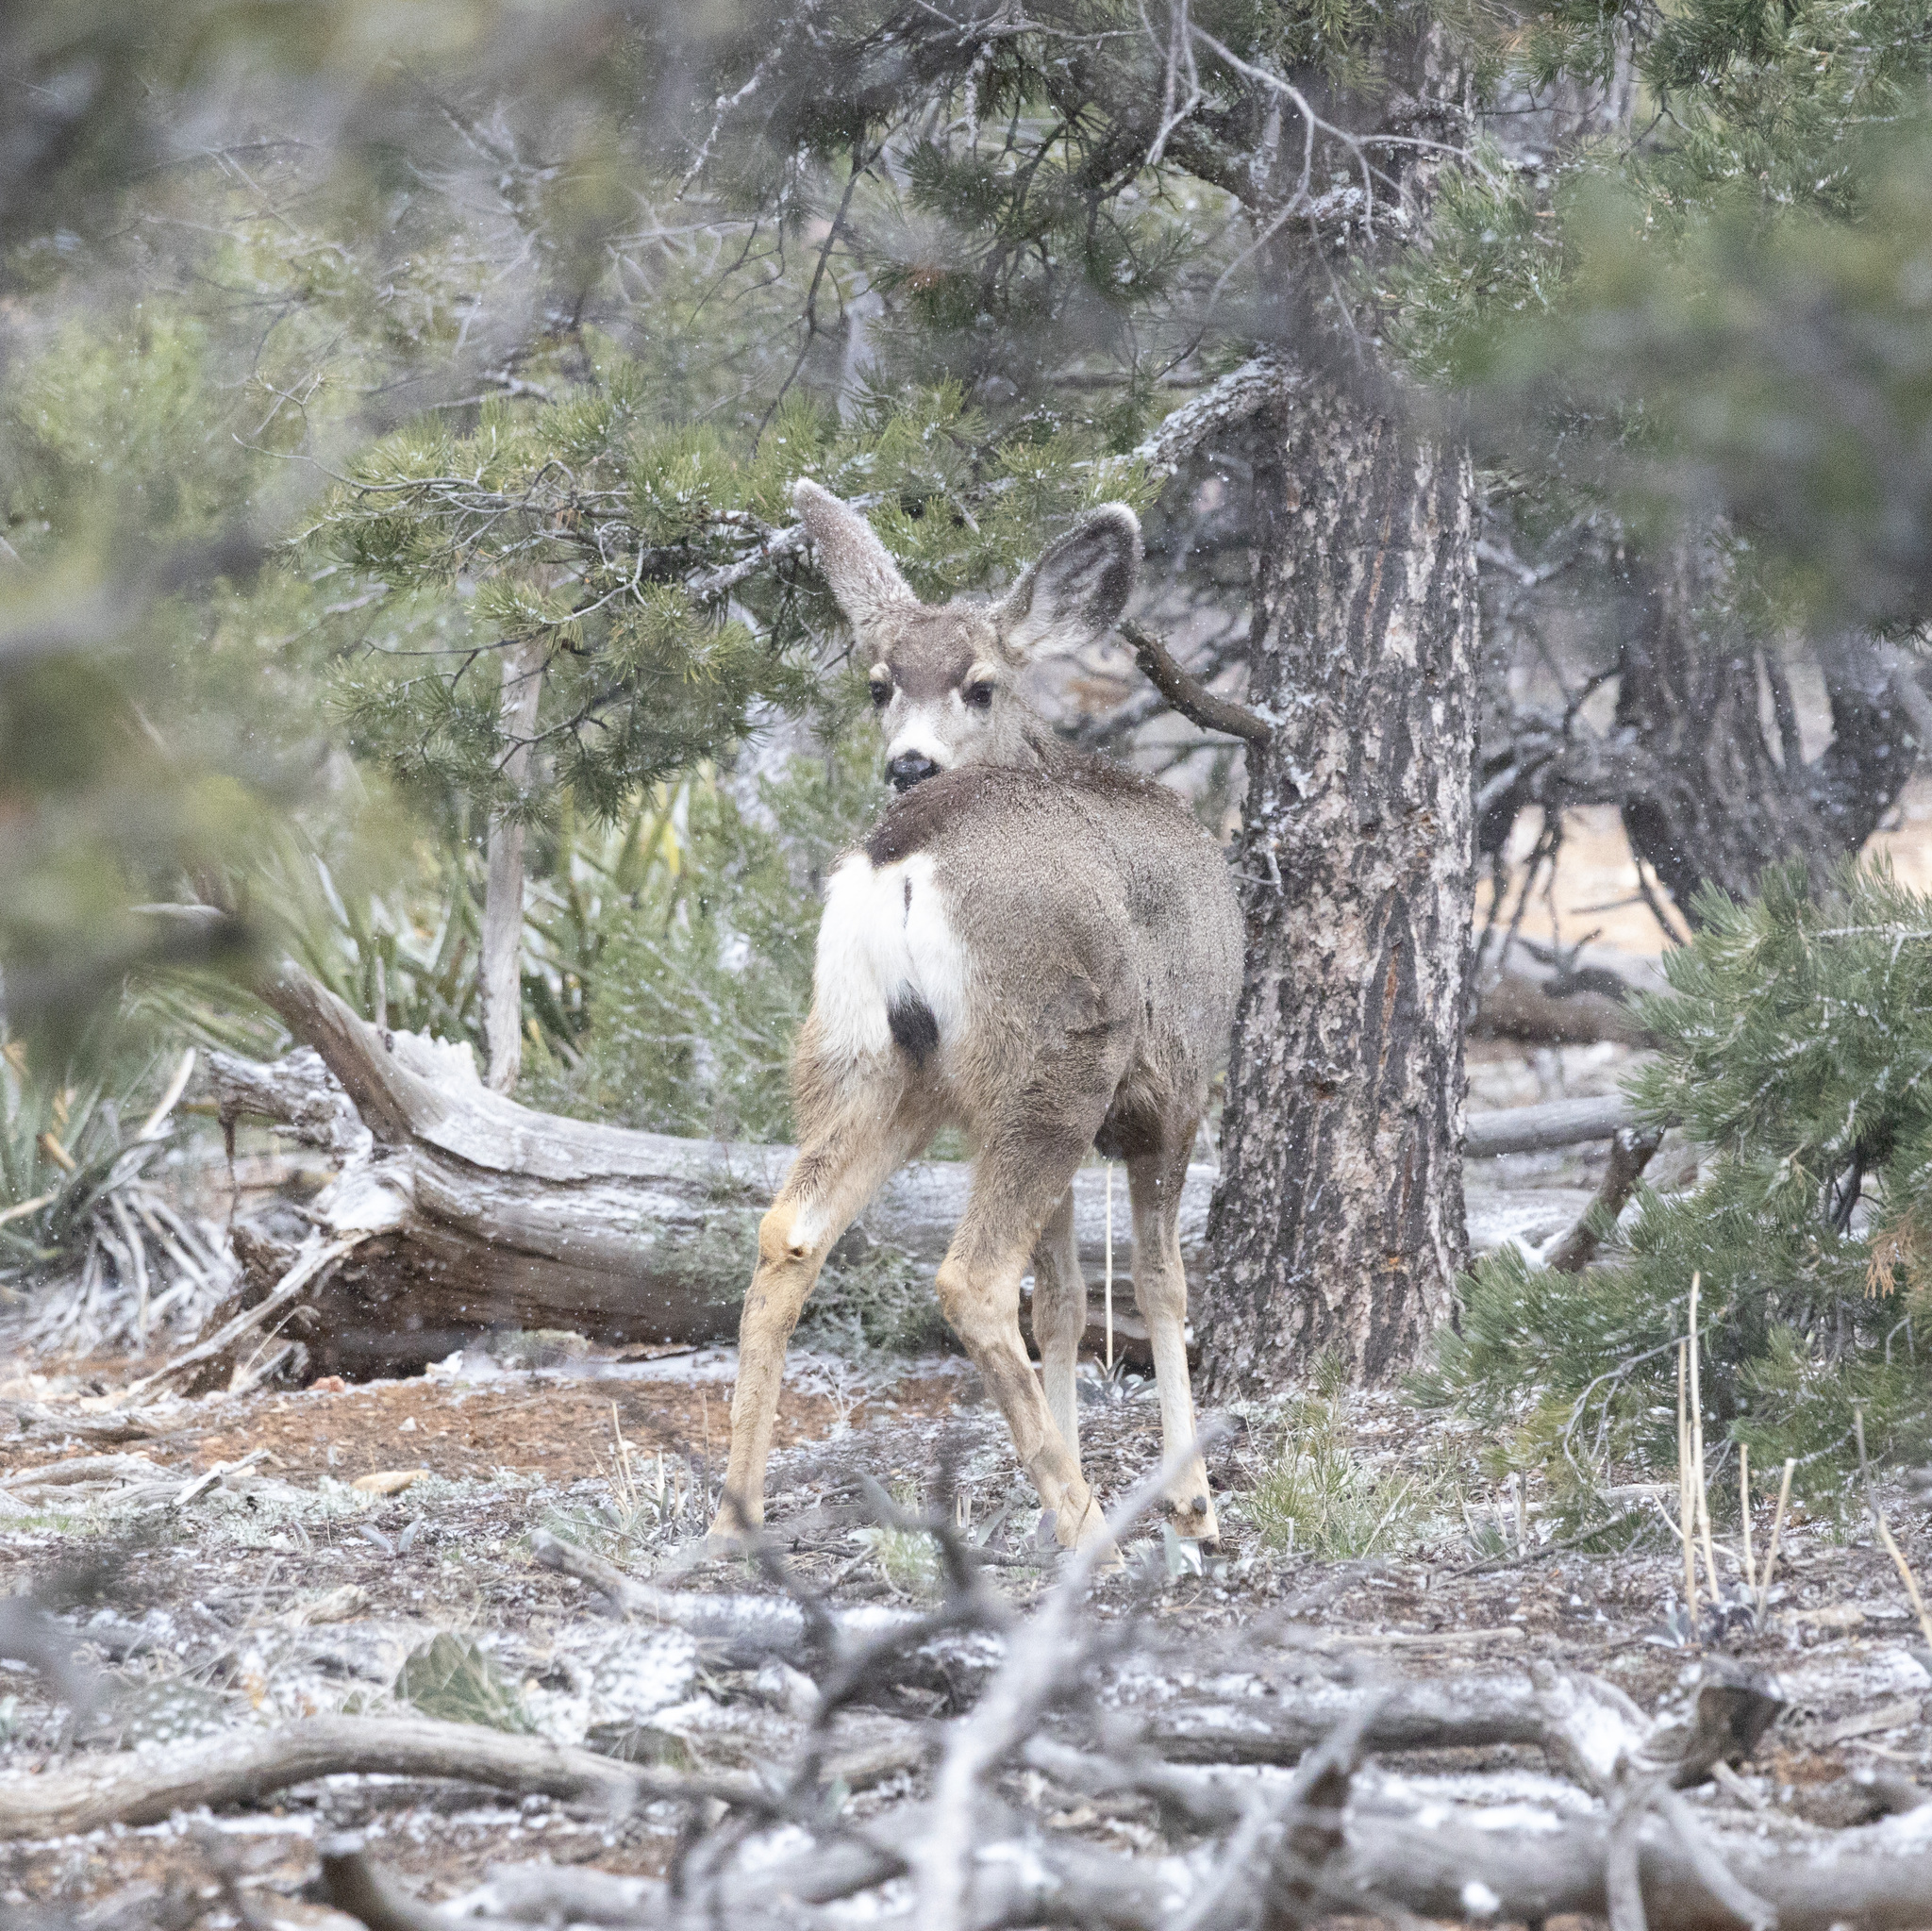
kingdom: Animalia
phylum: Chordata
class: Mammalia
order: Artiodactyla
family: Cervidae
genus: Odocoileus
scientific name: Odocoileus hemionus
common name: Mule deer
